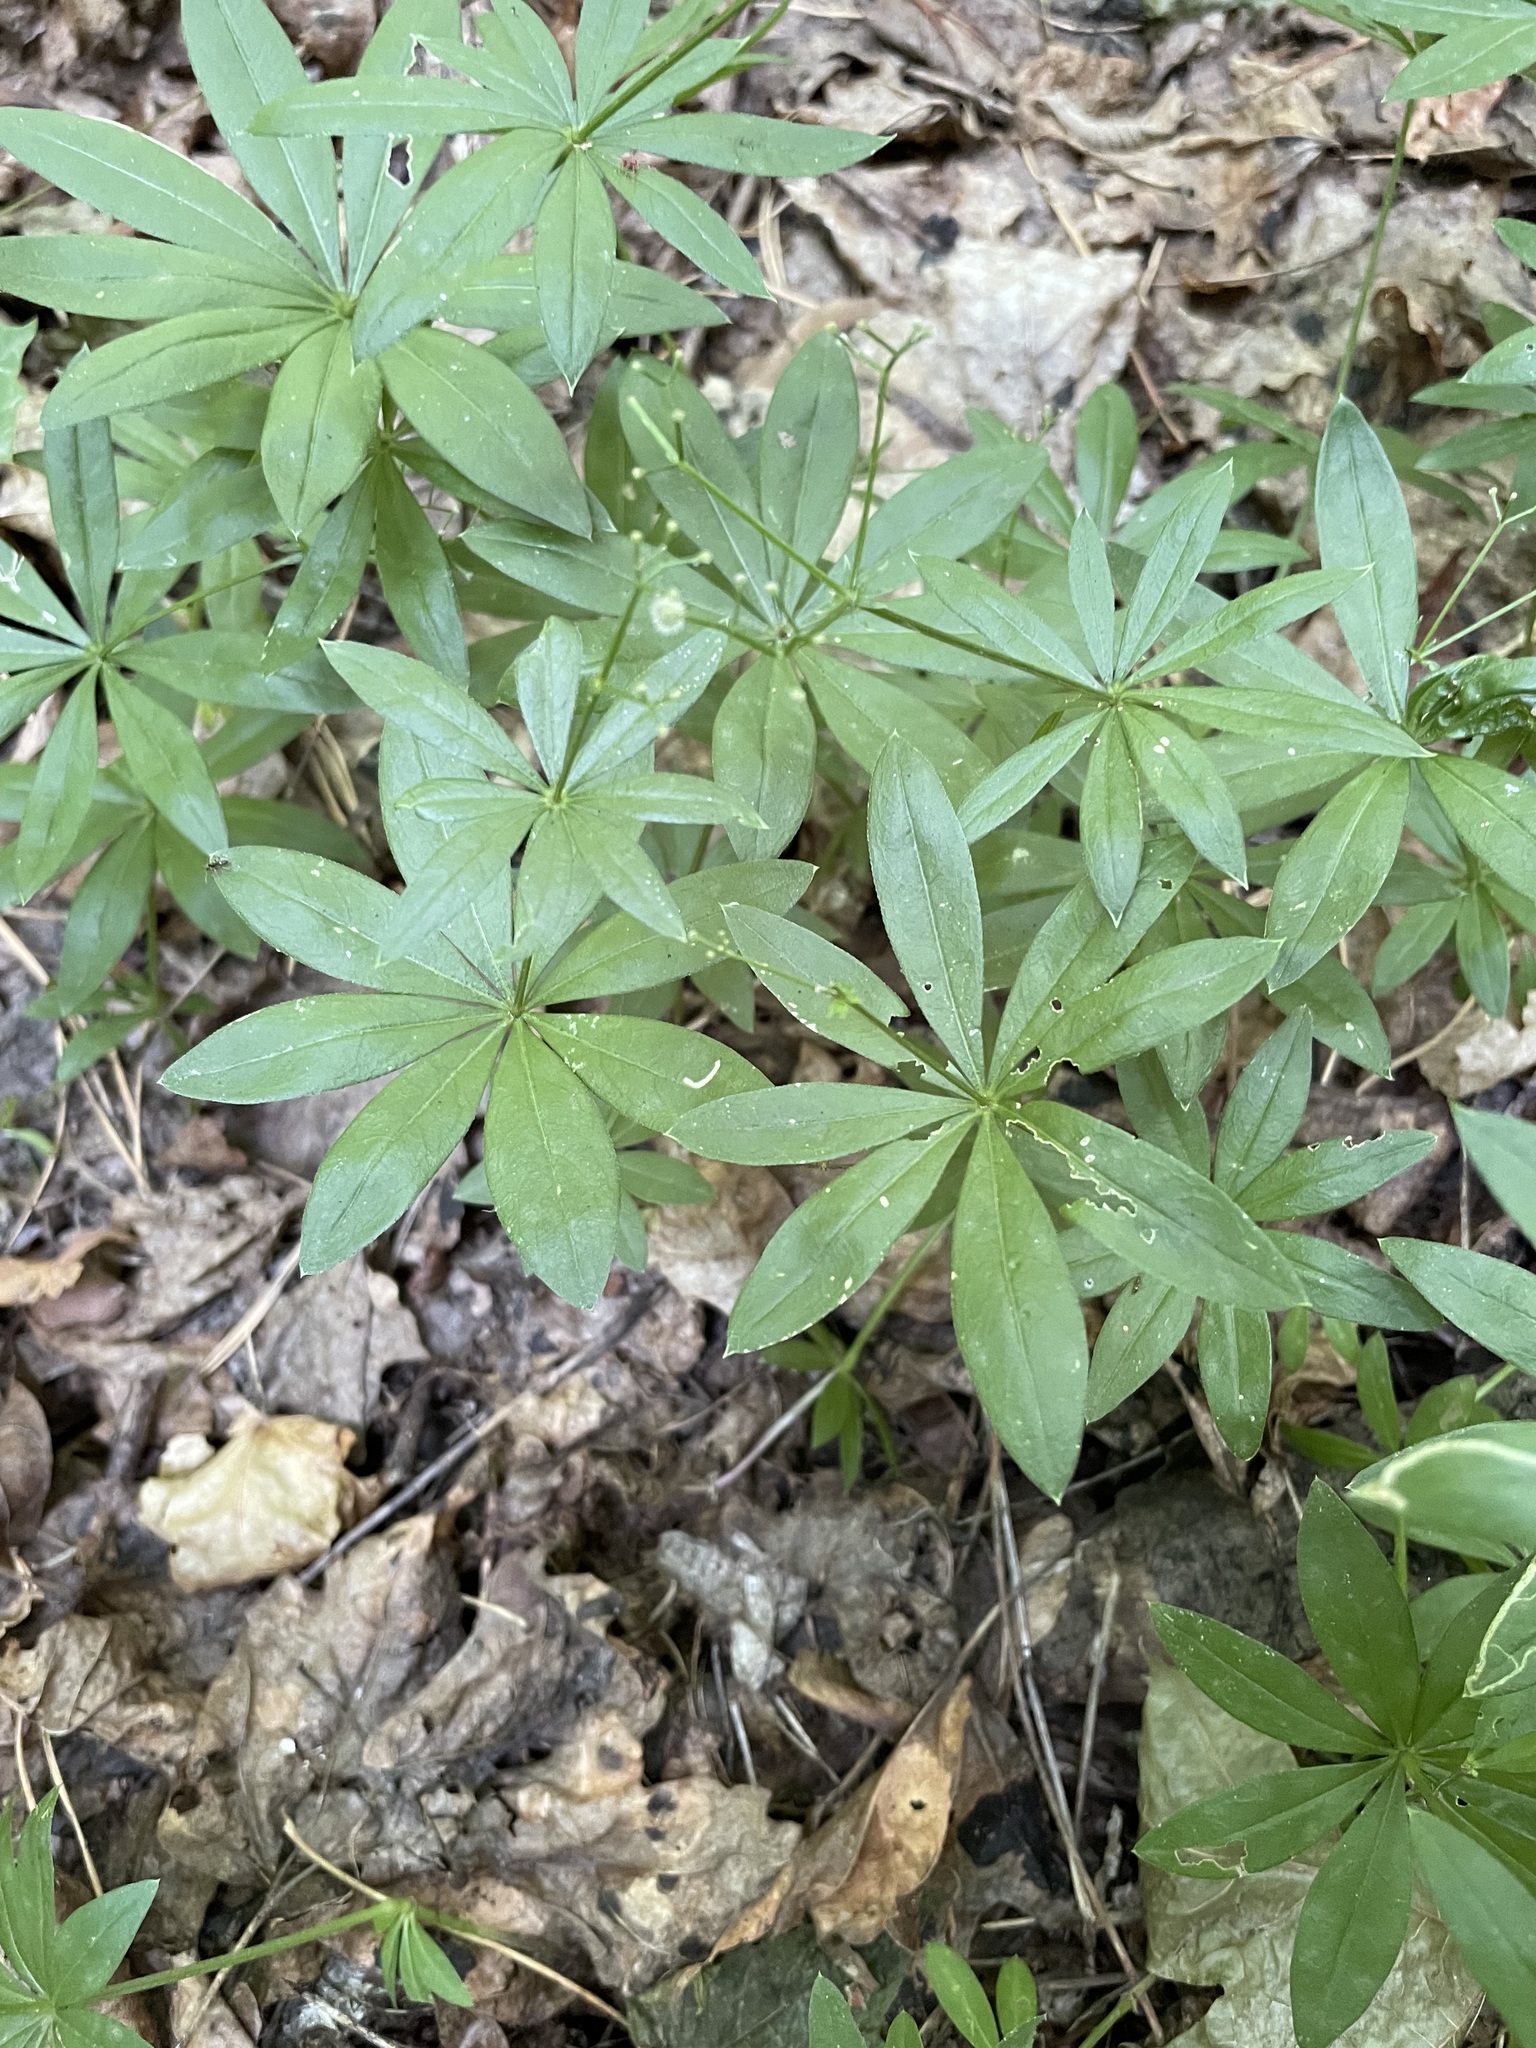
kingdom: Plantae
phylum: Tracheophyta
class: Magnoliopsida
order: Gentianales
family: Rubiaceae
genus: Galium
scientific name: Galium odoratum
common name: Sweet woodruff
